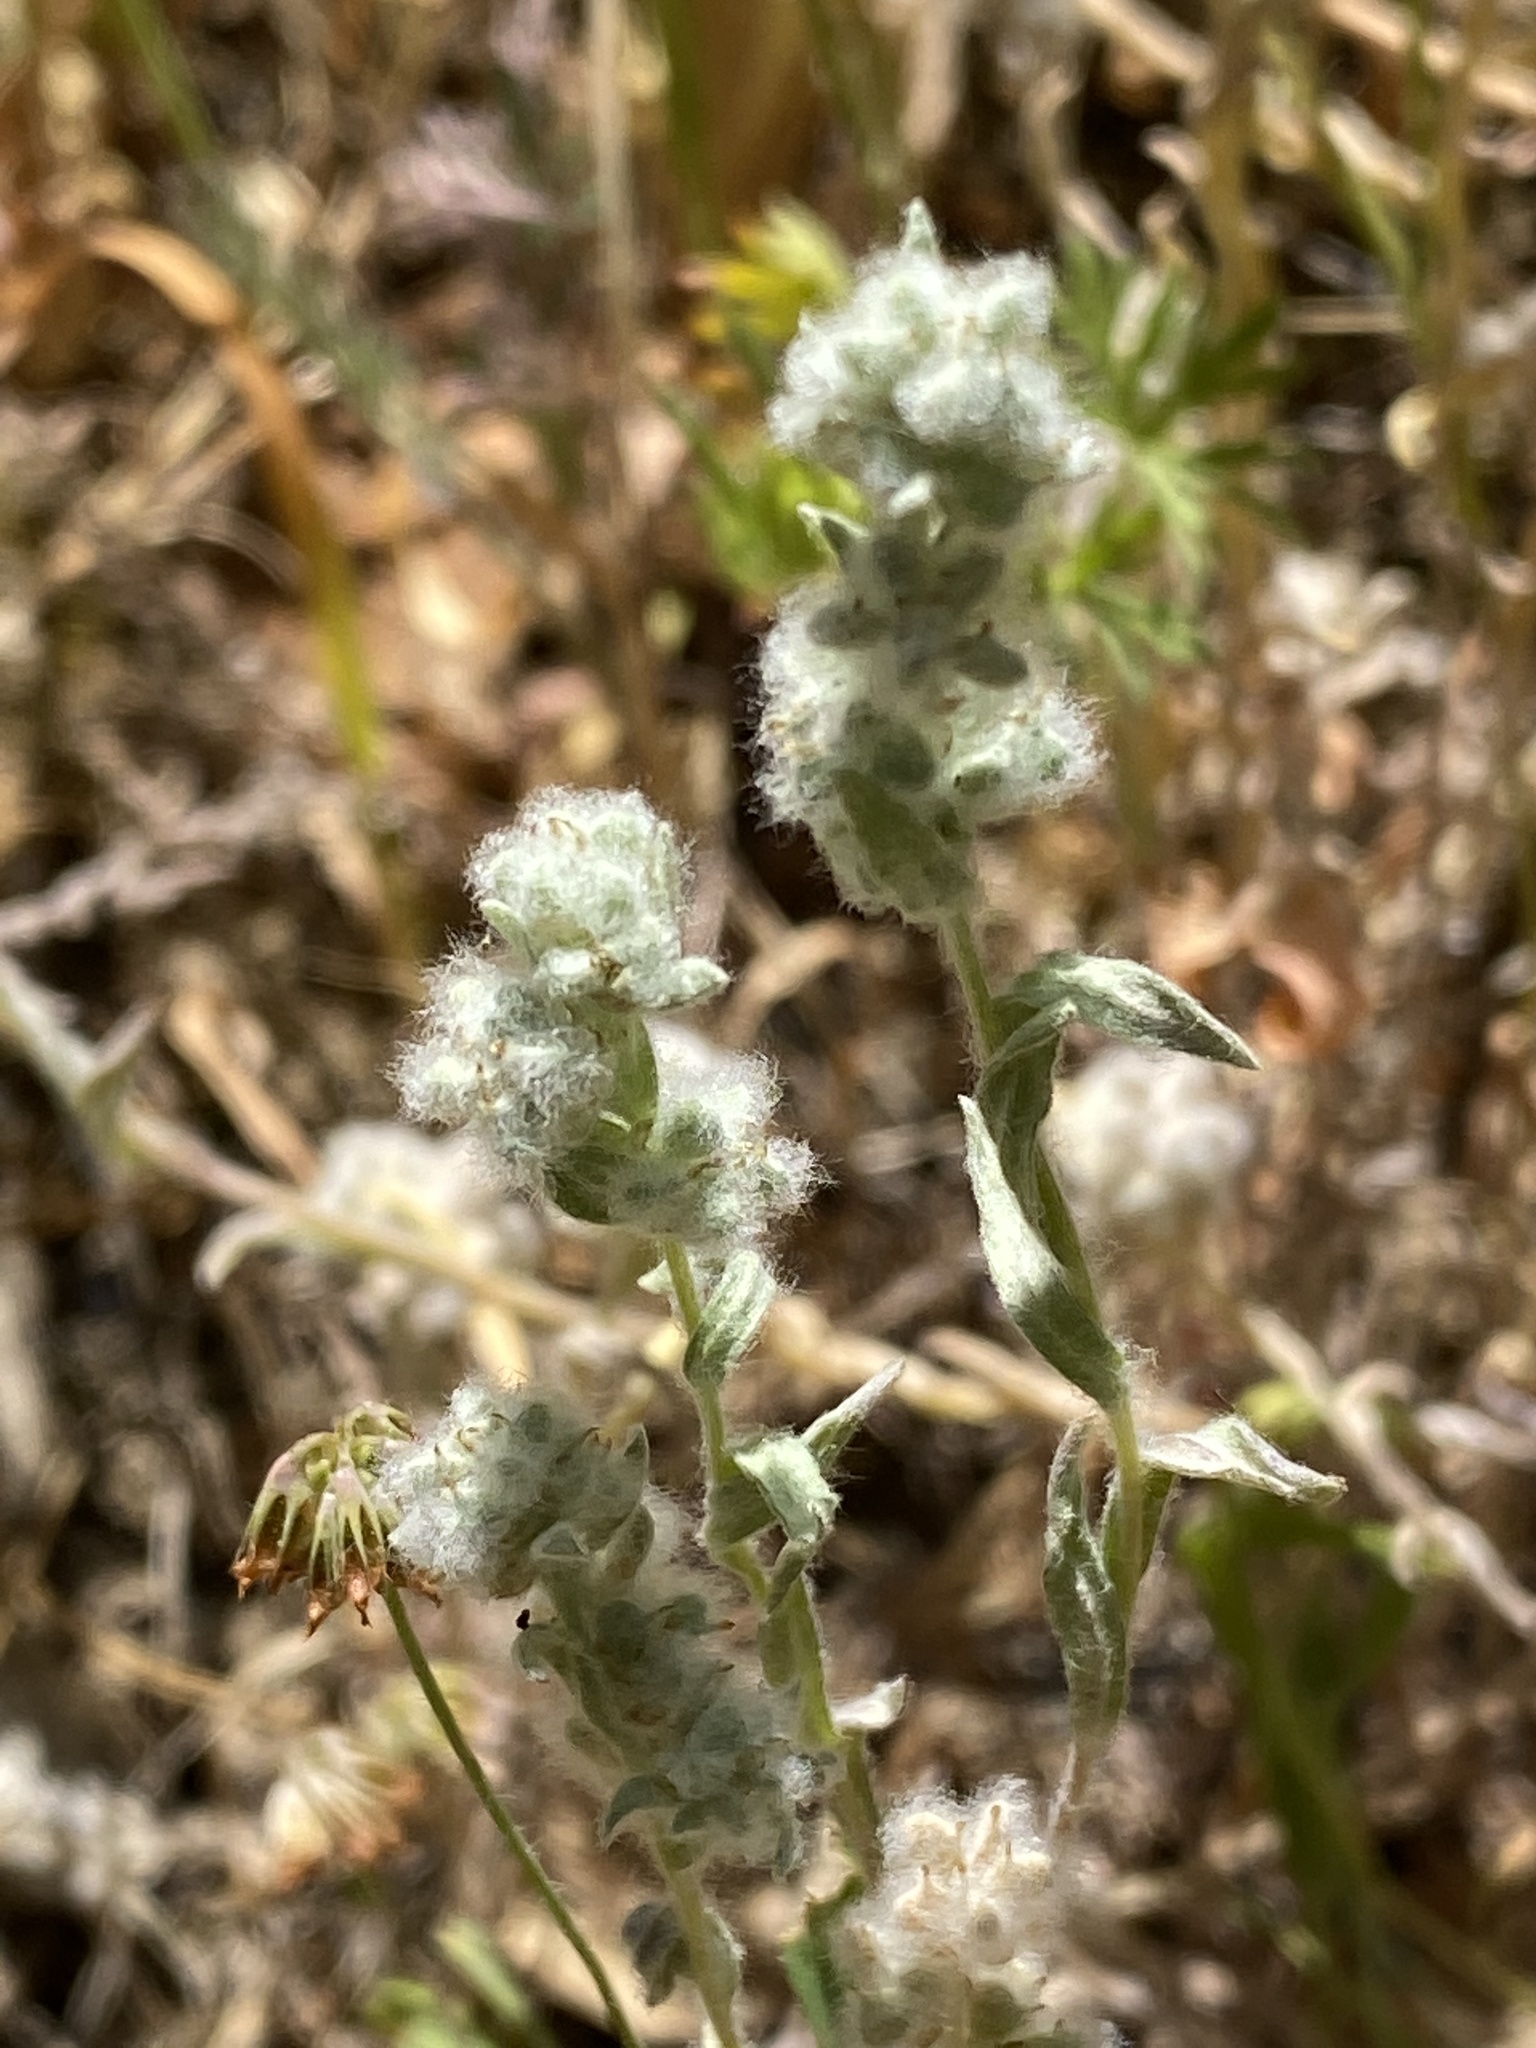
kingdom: Plantae
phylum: Tracheophyta
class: Magnoliopsida
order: Asterales
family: Asteraceae
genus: Bombycilaena
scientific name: Bombycilaena californica
